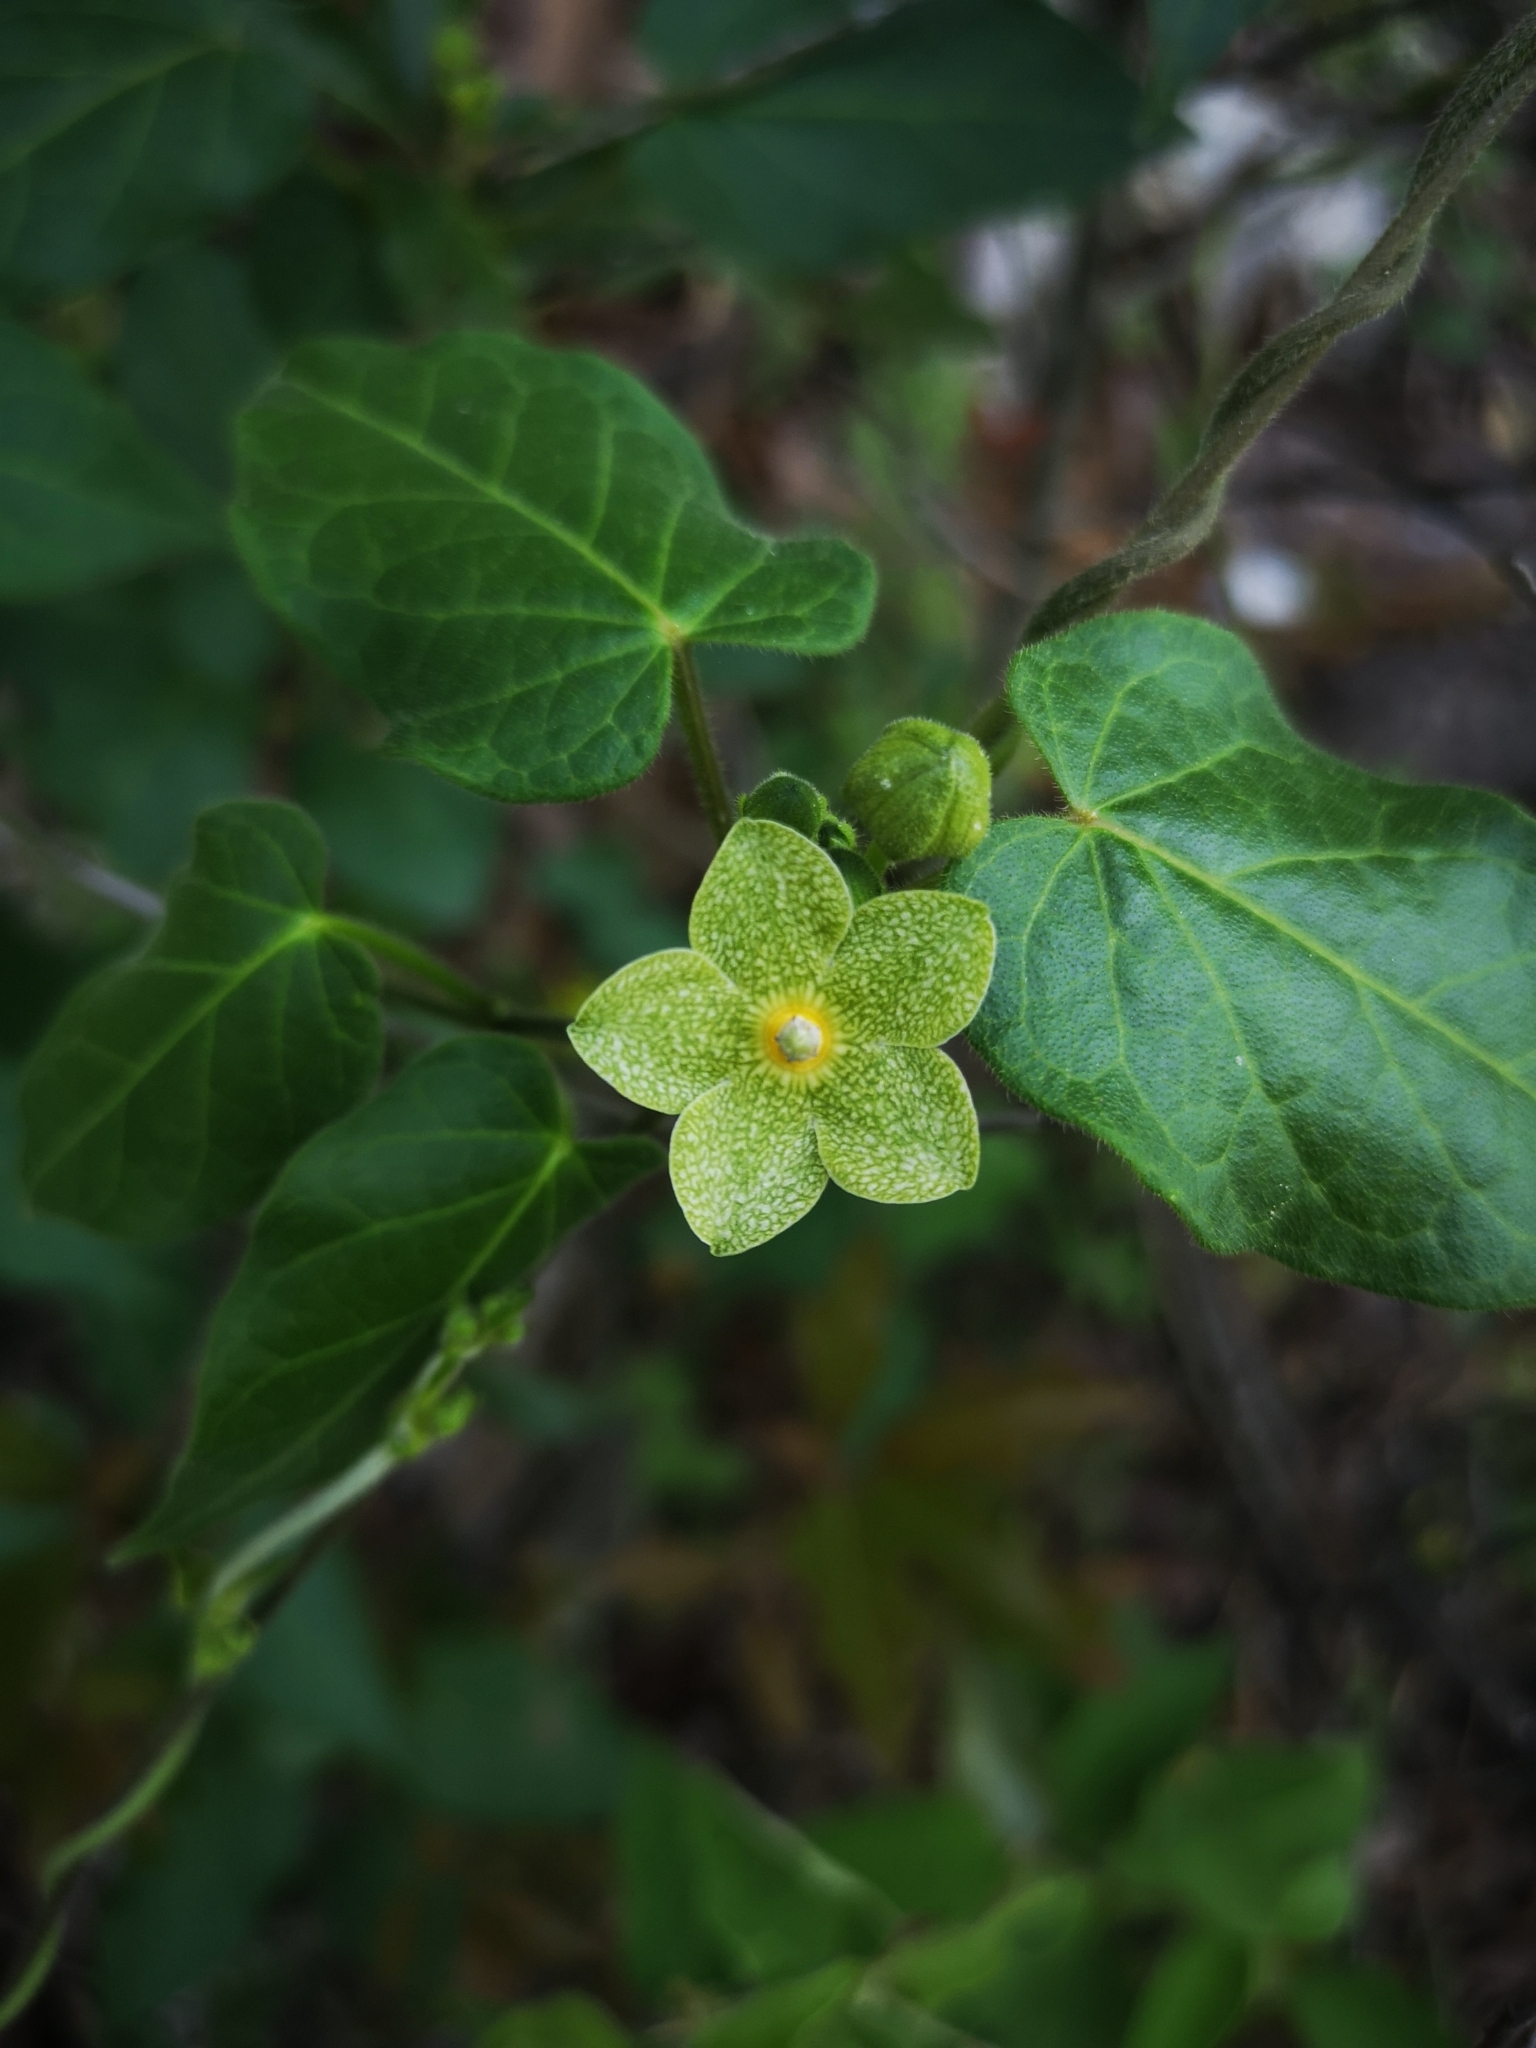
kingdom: Plantae
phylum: Tracheophyta
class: Magnoliopsida
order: Gentianales
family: Apocynaceae
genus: Dictyanthus
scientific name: Dictyanthus reticulatus
